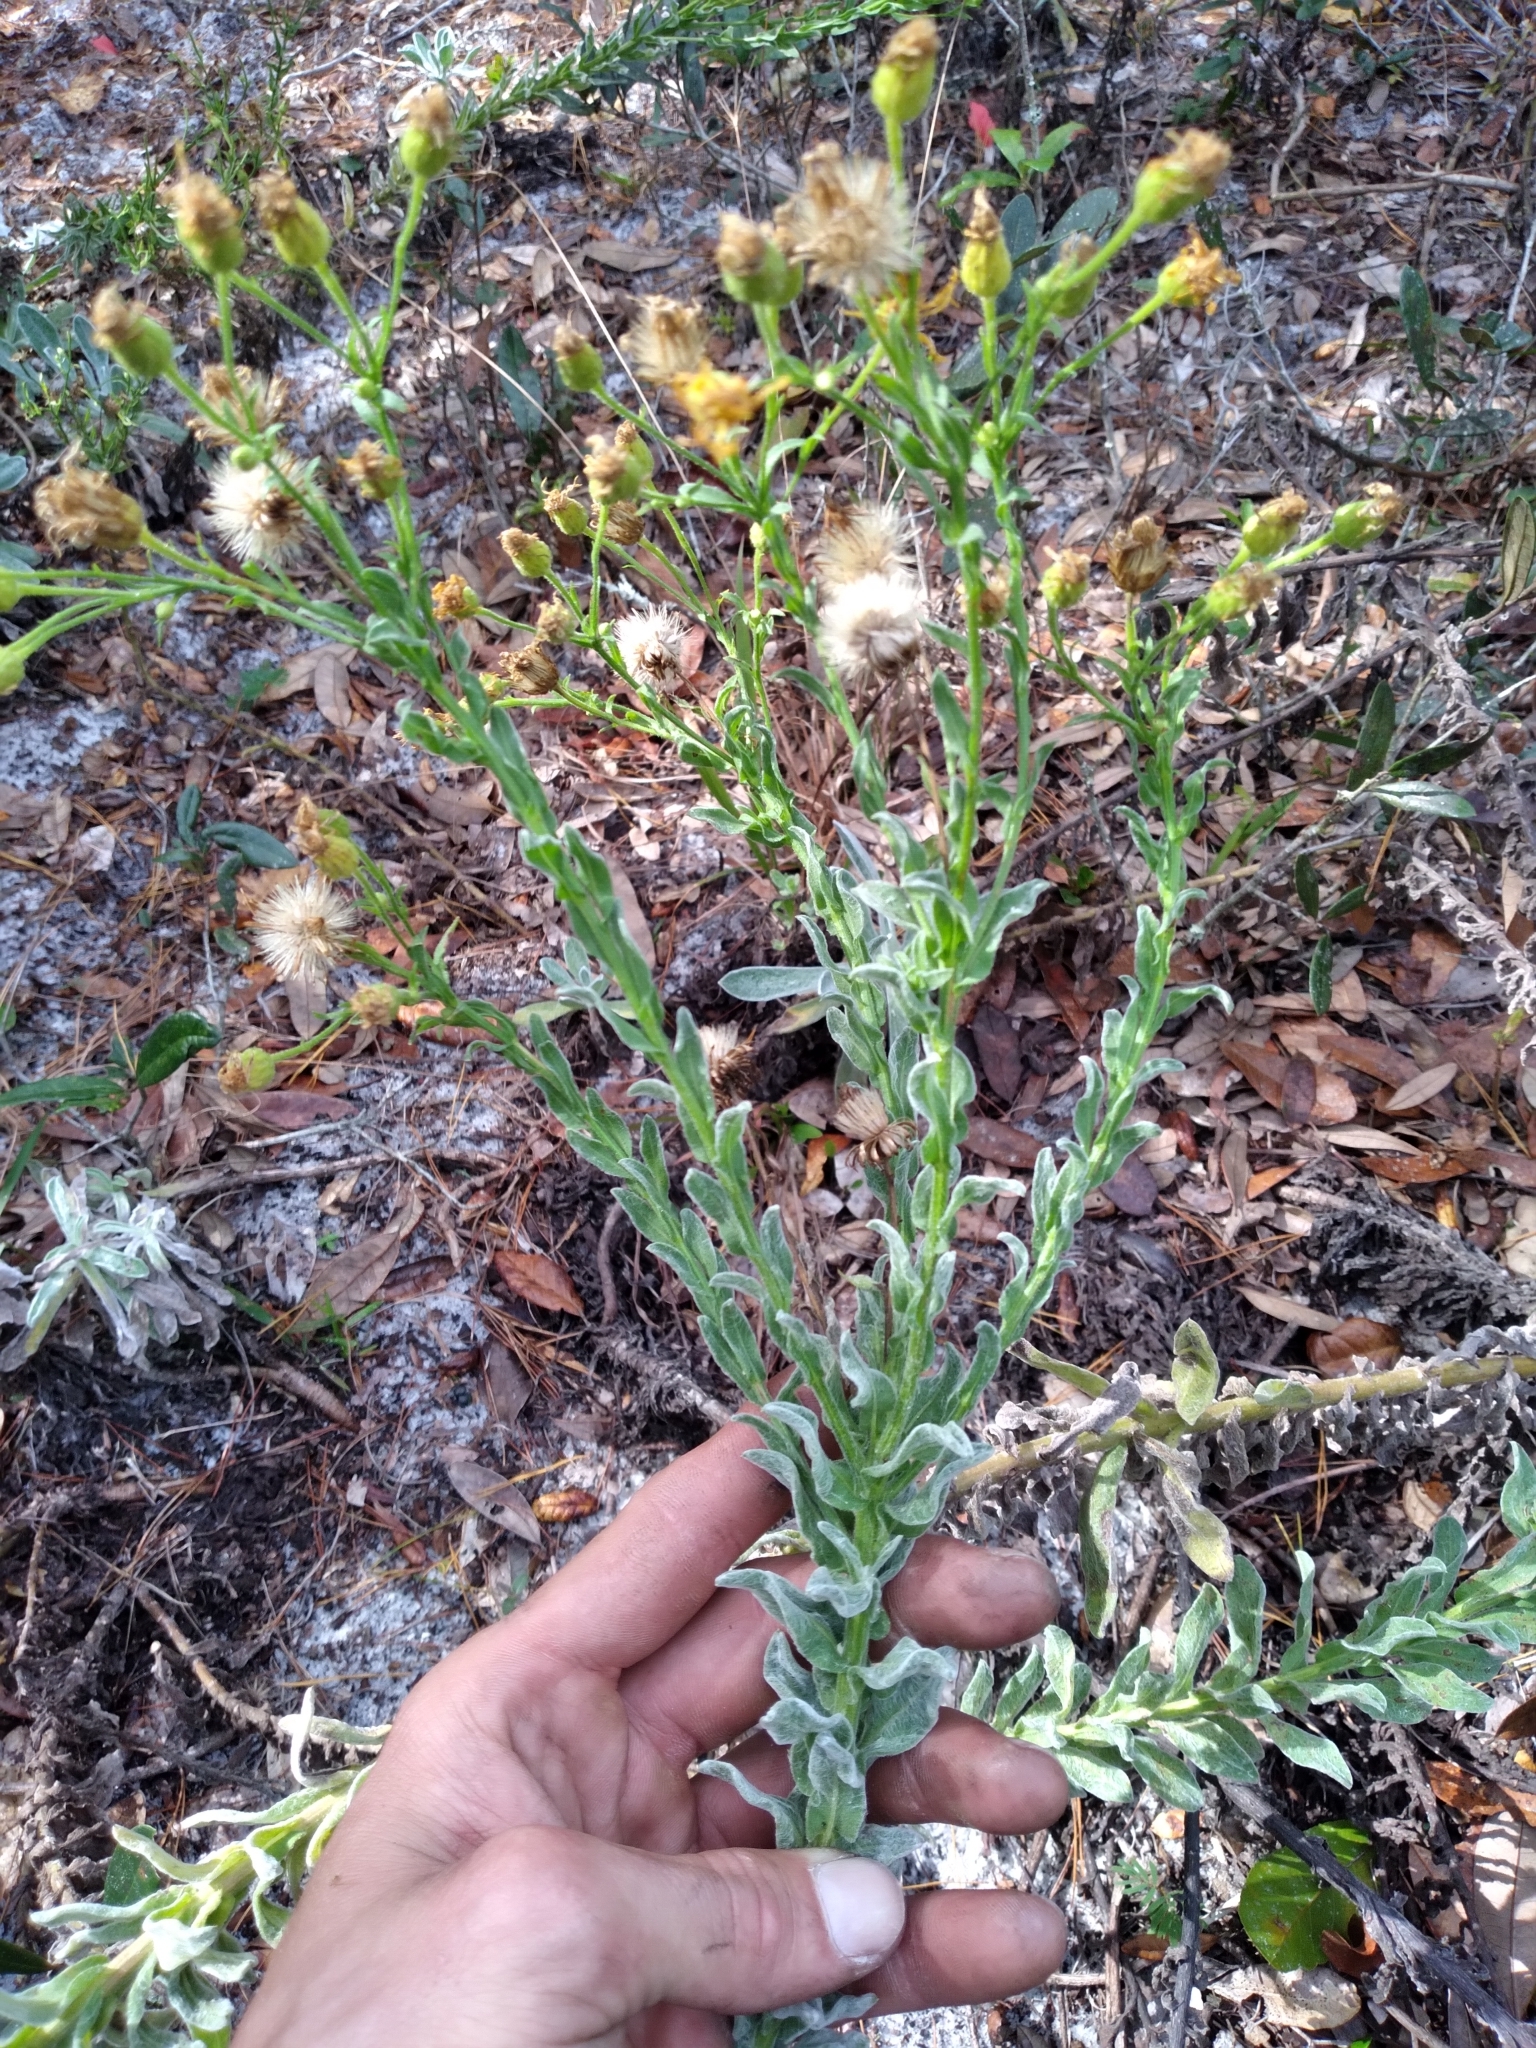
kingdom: Plantae
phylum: Tracheophyta
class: Magnoliopsida
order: Asterales
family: Asteraceae
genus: Chrysopsis
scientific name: Chrysopsis floridana
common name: Florida golden-aster
